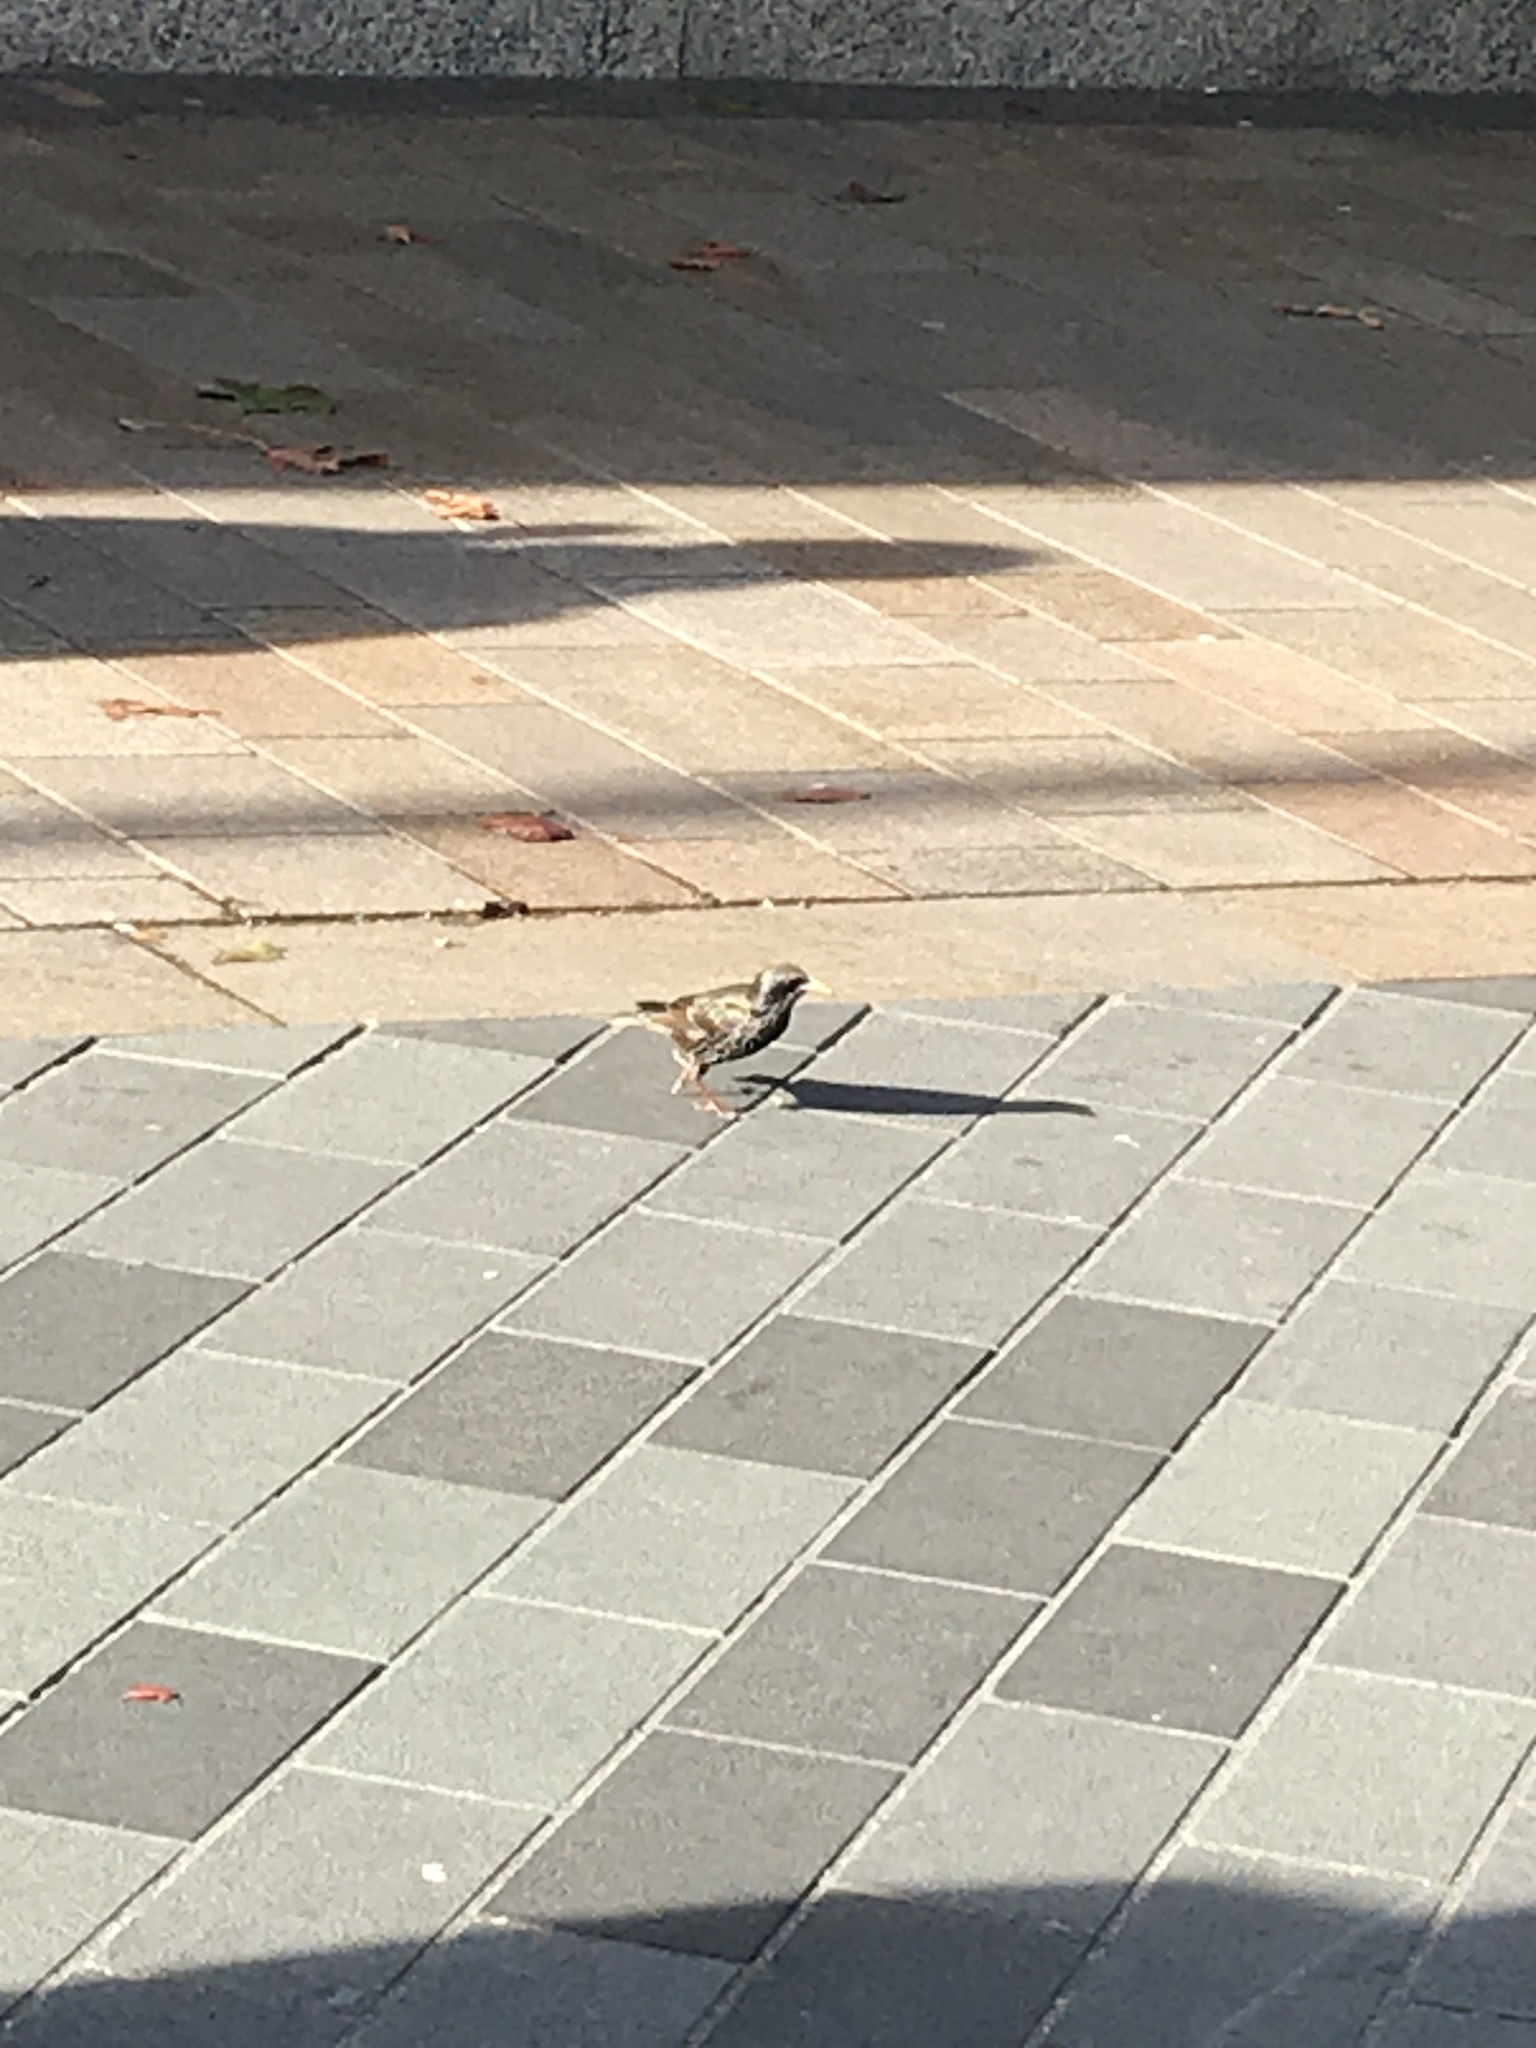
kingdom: Animalia
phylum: Chordata
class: Aves
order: Passeriformes
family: Sturnidae
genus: Sturnus
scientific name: Sturnus vulgaris
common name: Common starling
